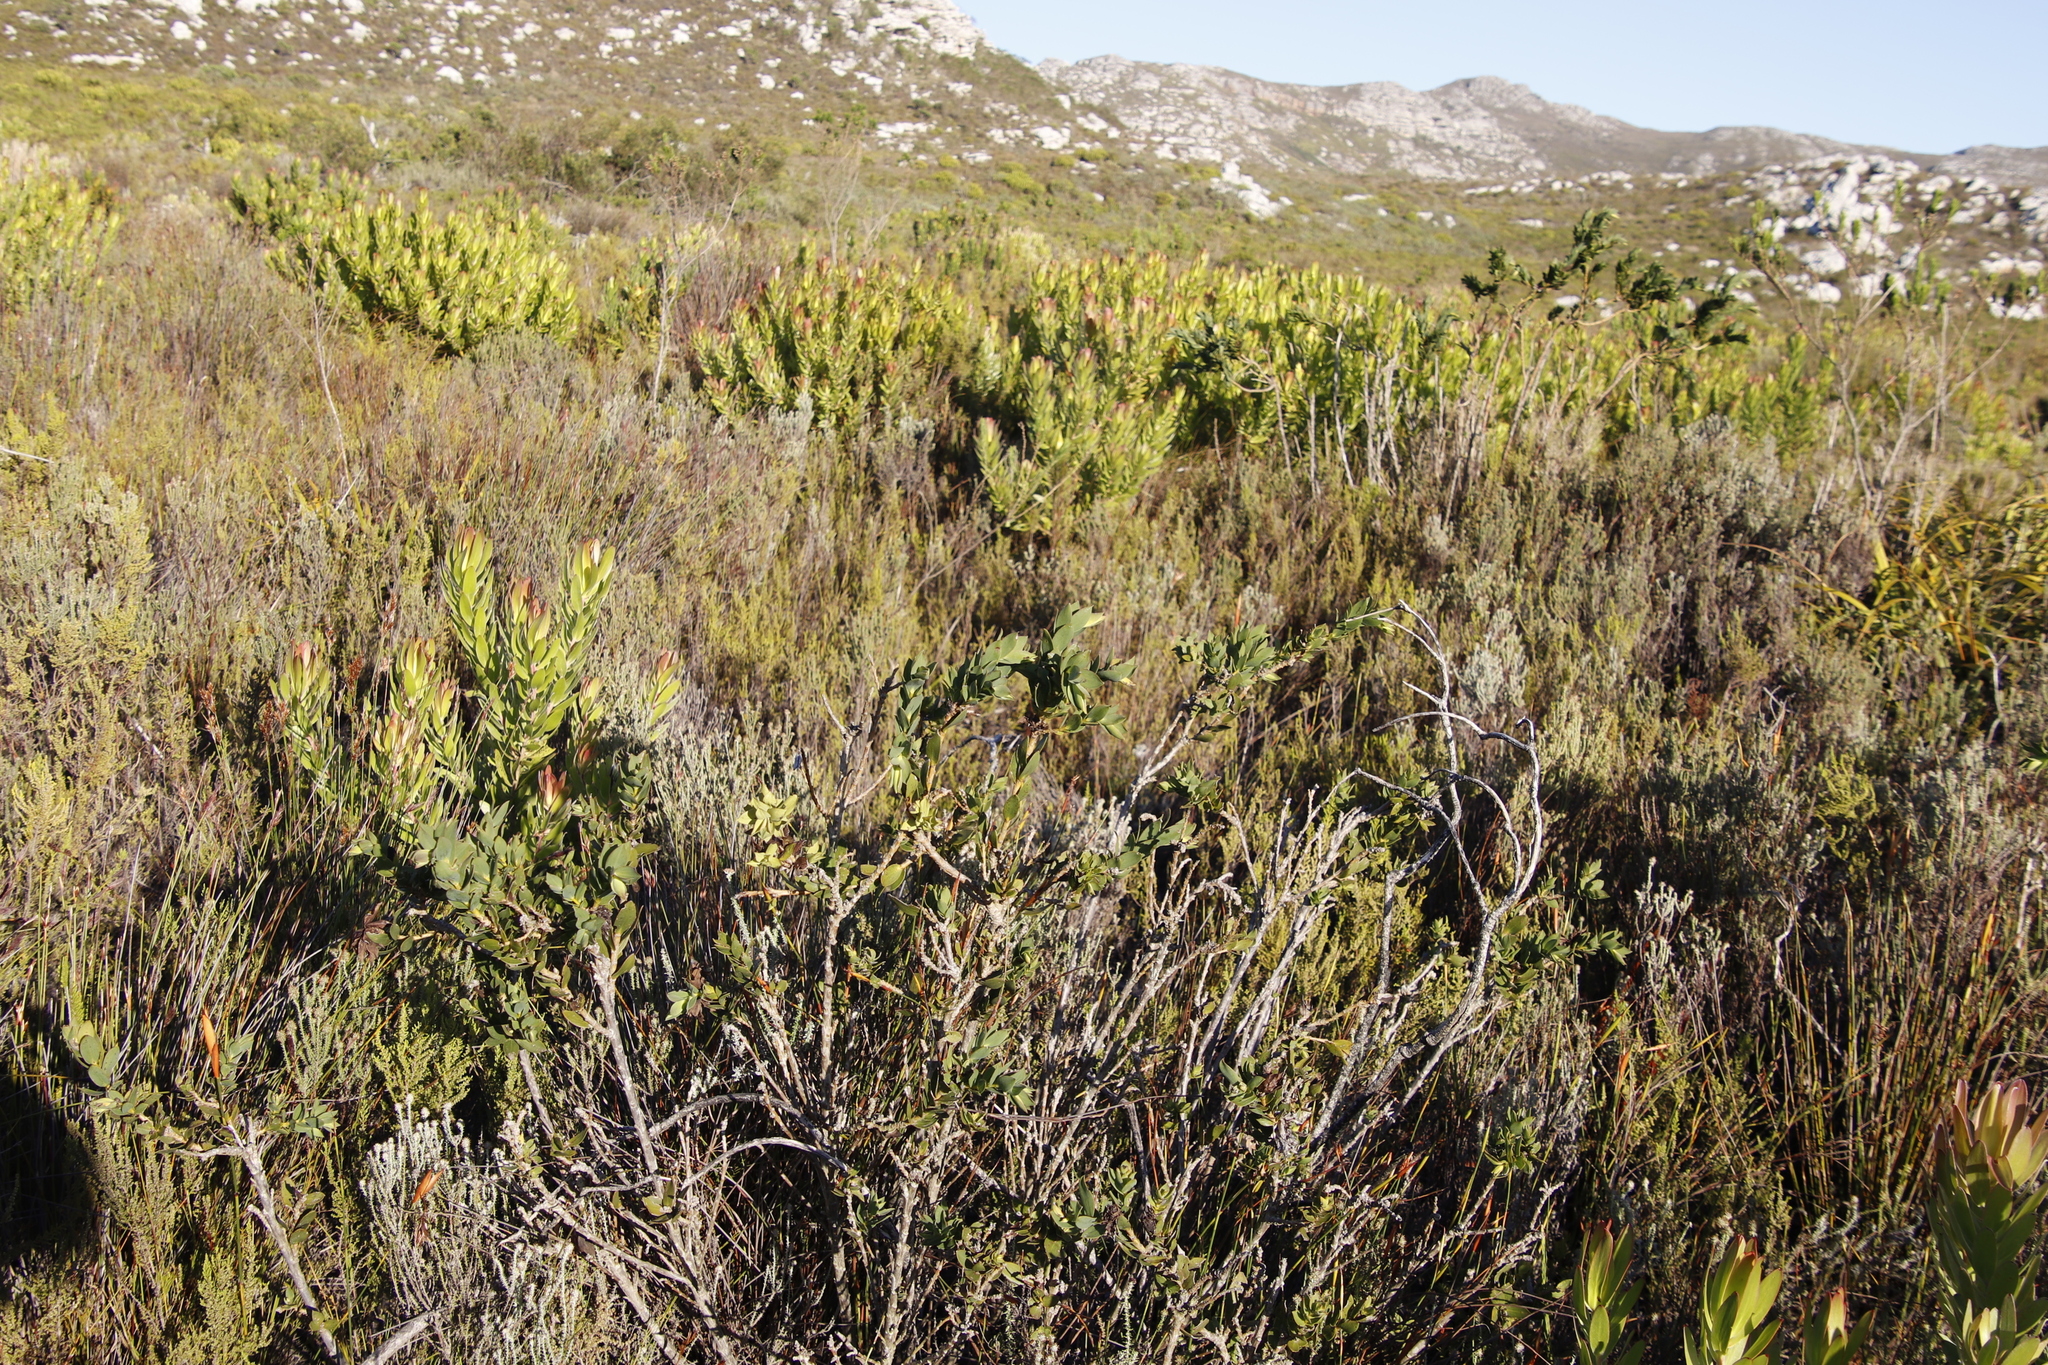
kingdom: Plantae
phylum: Tracheophyta
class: Magnoliopsida
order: Fabales
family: Fabaceae
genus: Liparia
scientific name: Liparia splendens
